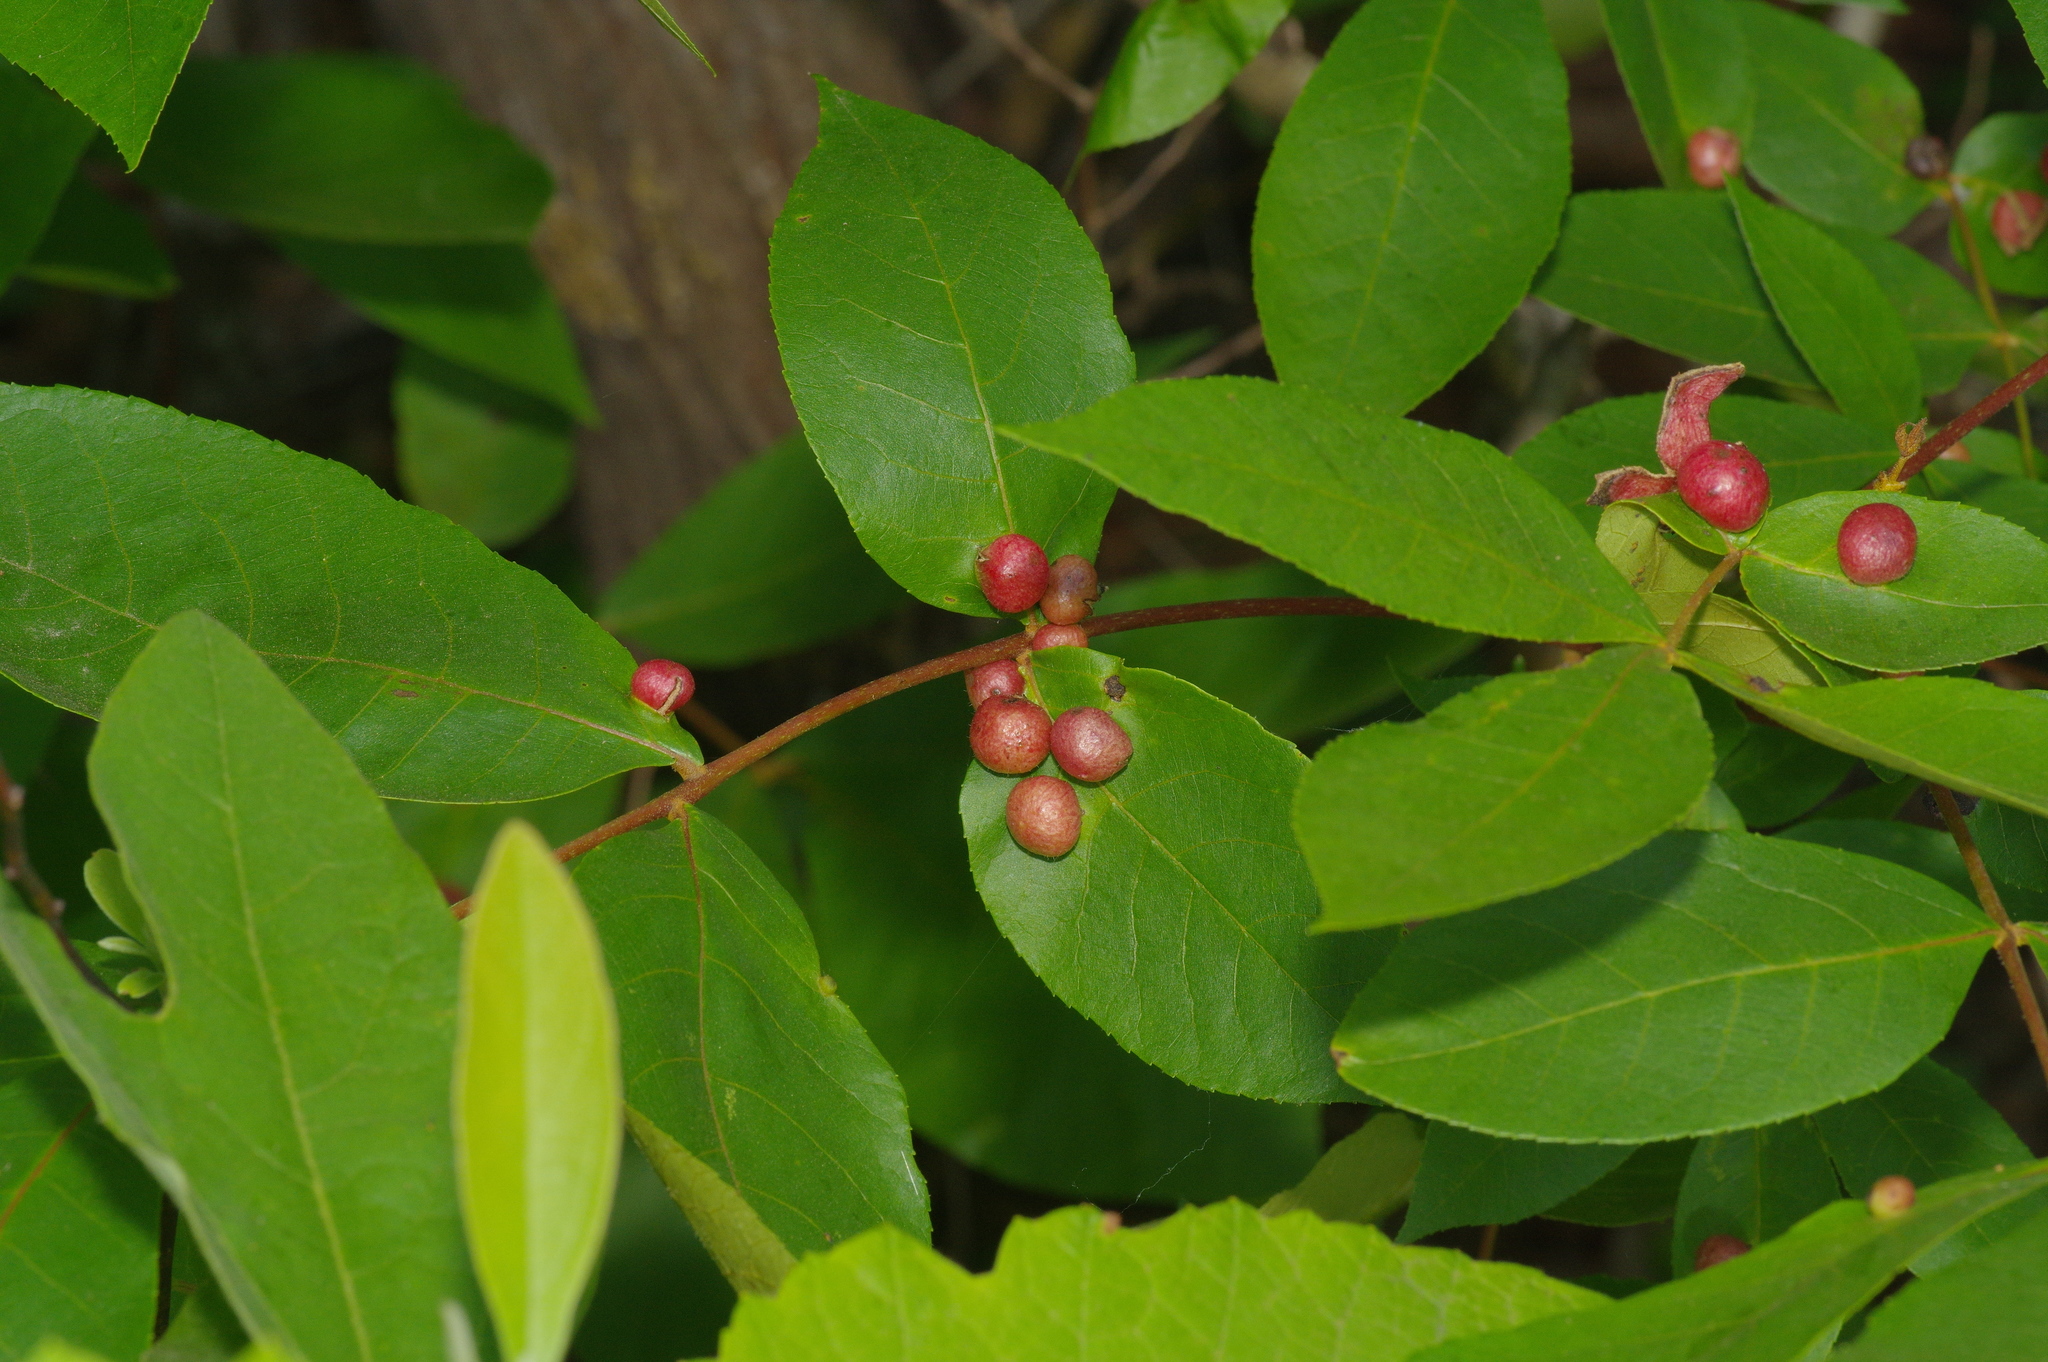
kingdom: Animalia
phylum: Arthropoda
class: Insecta
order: Hemiptera
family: Phylloxeridae
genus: Daktulosphaira
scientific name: Daktulosphaira conicum
